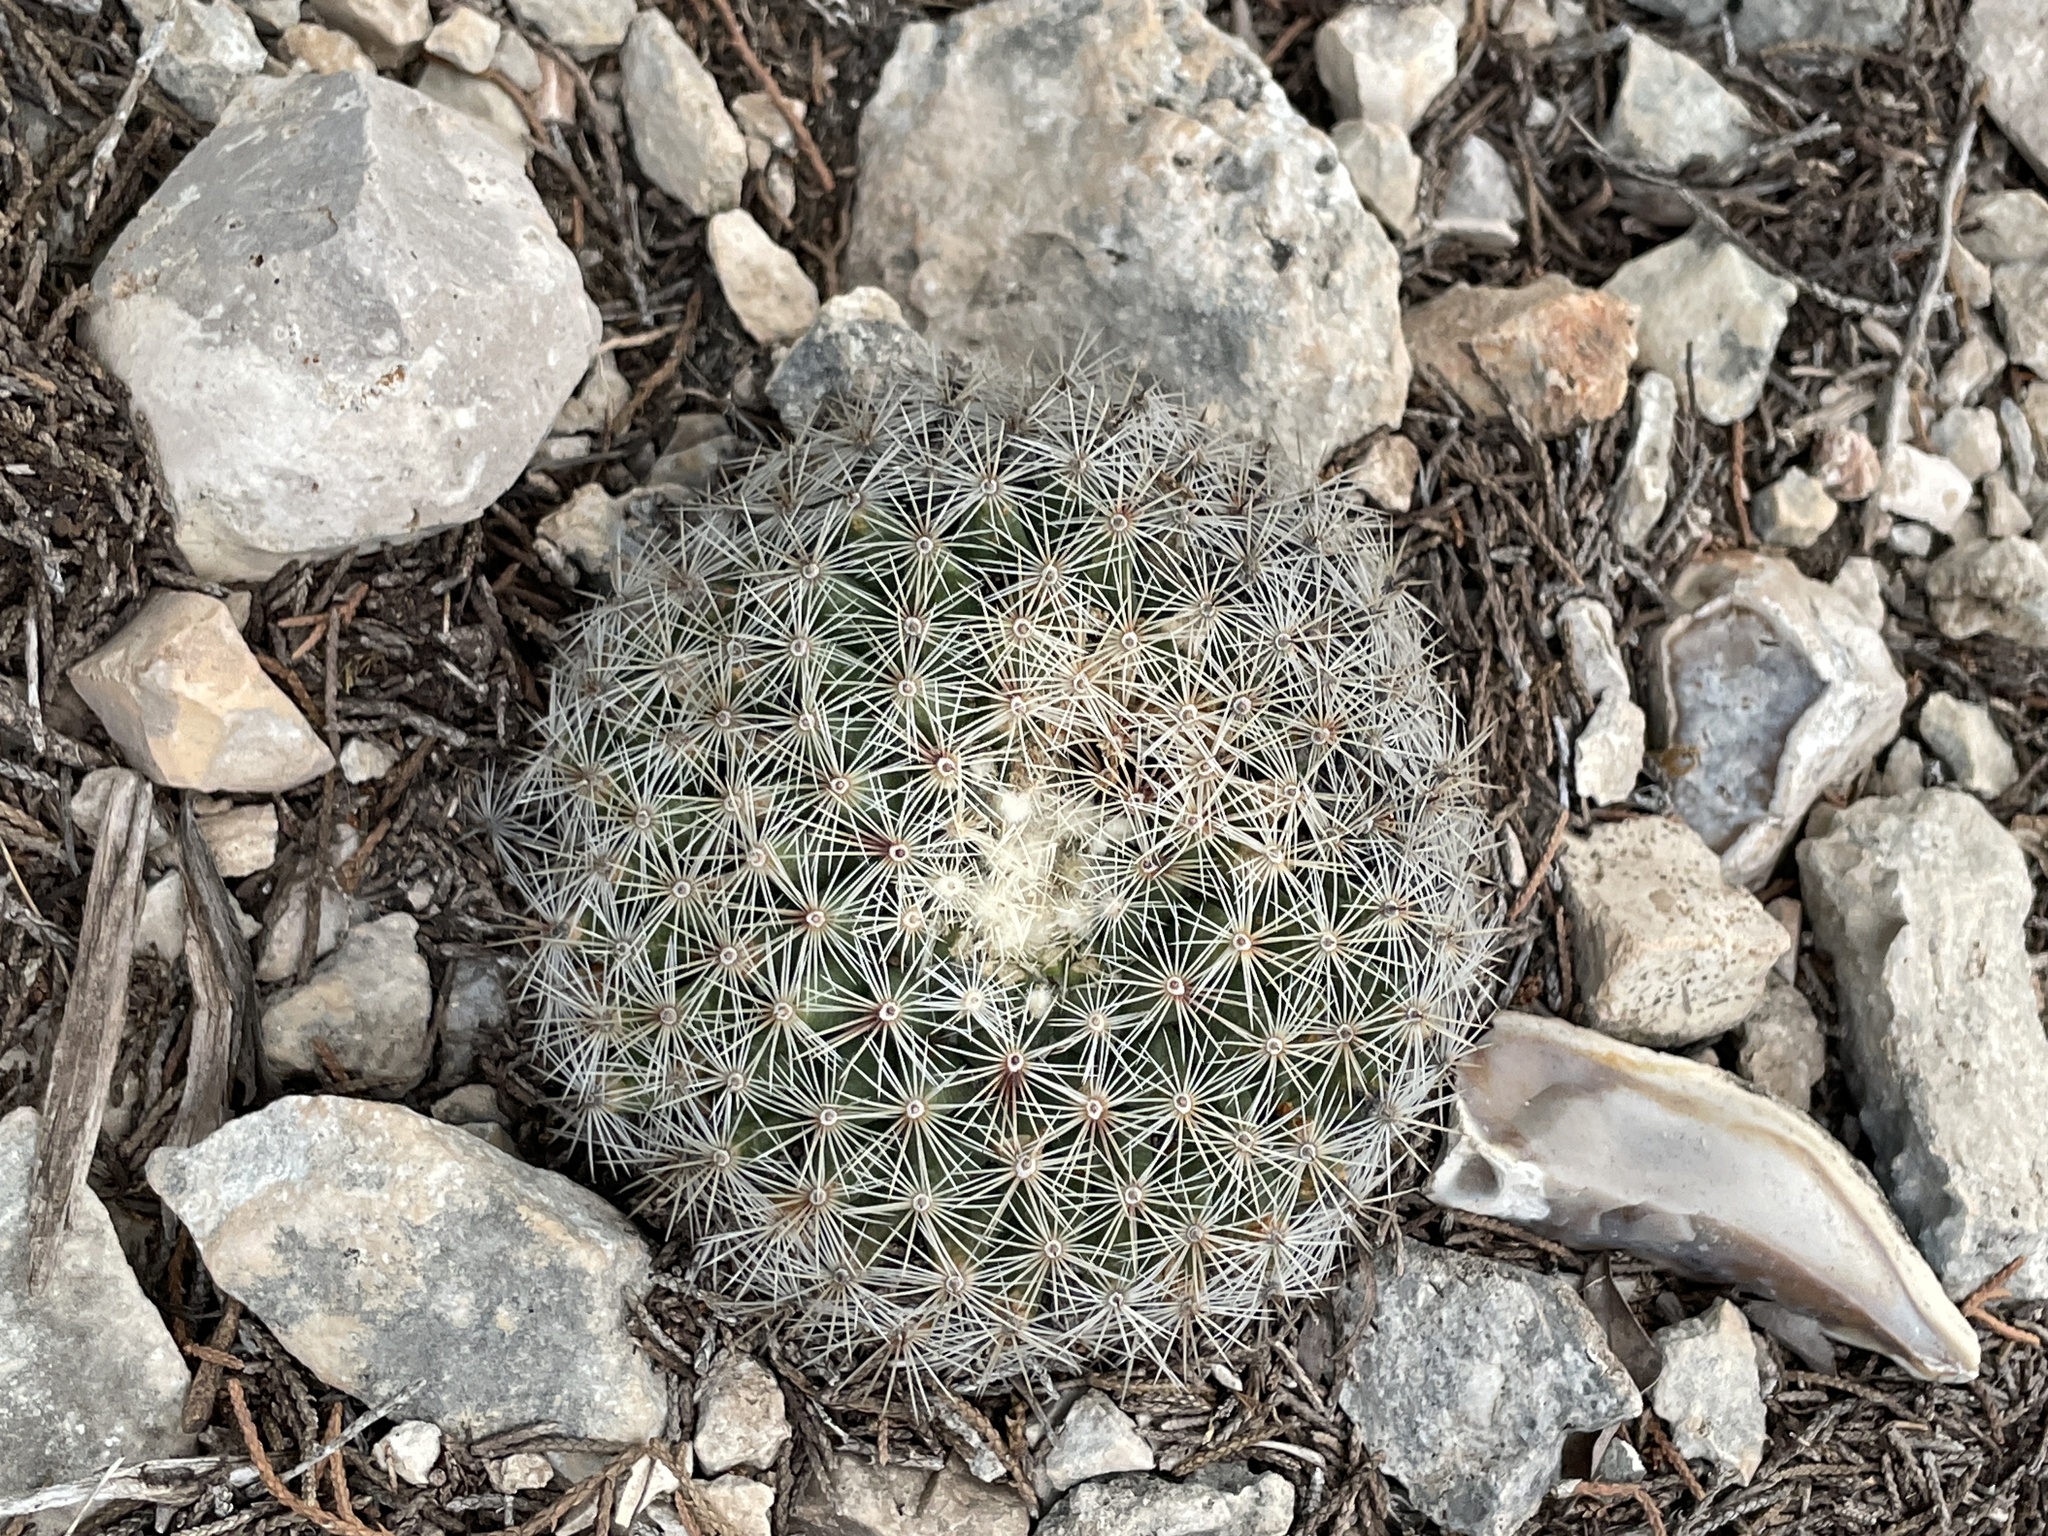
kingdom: Plantae
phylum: Tracheophyta
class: Magnoliopsida
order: Caryophyllales
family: Cactaceae
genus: Mammillaria
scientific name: Mammillaria heyderi
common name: Little nipple cactus
